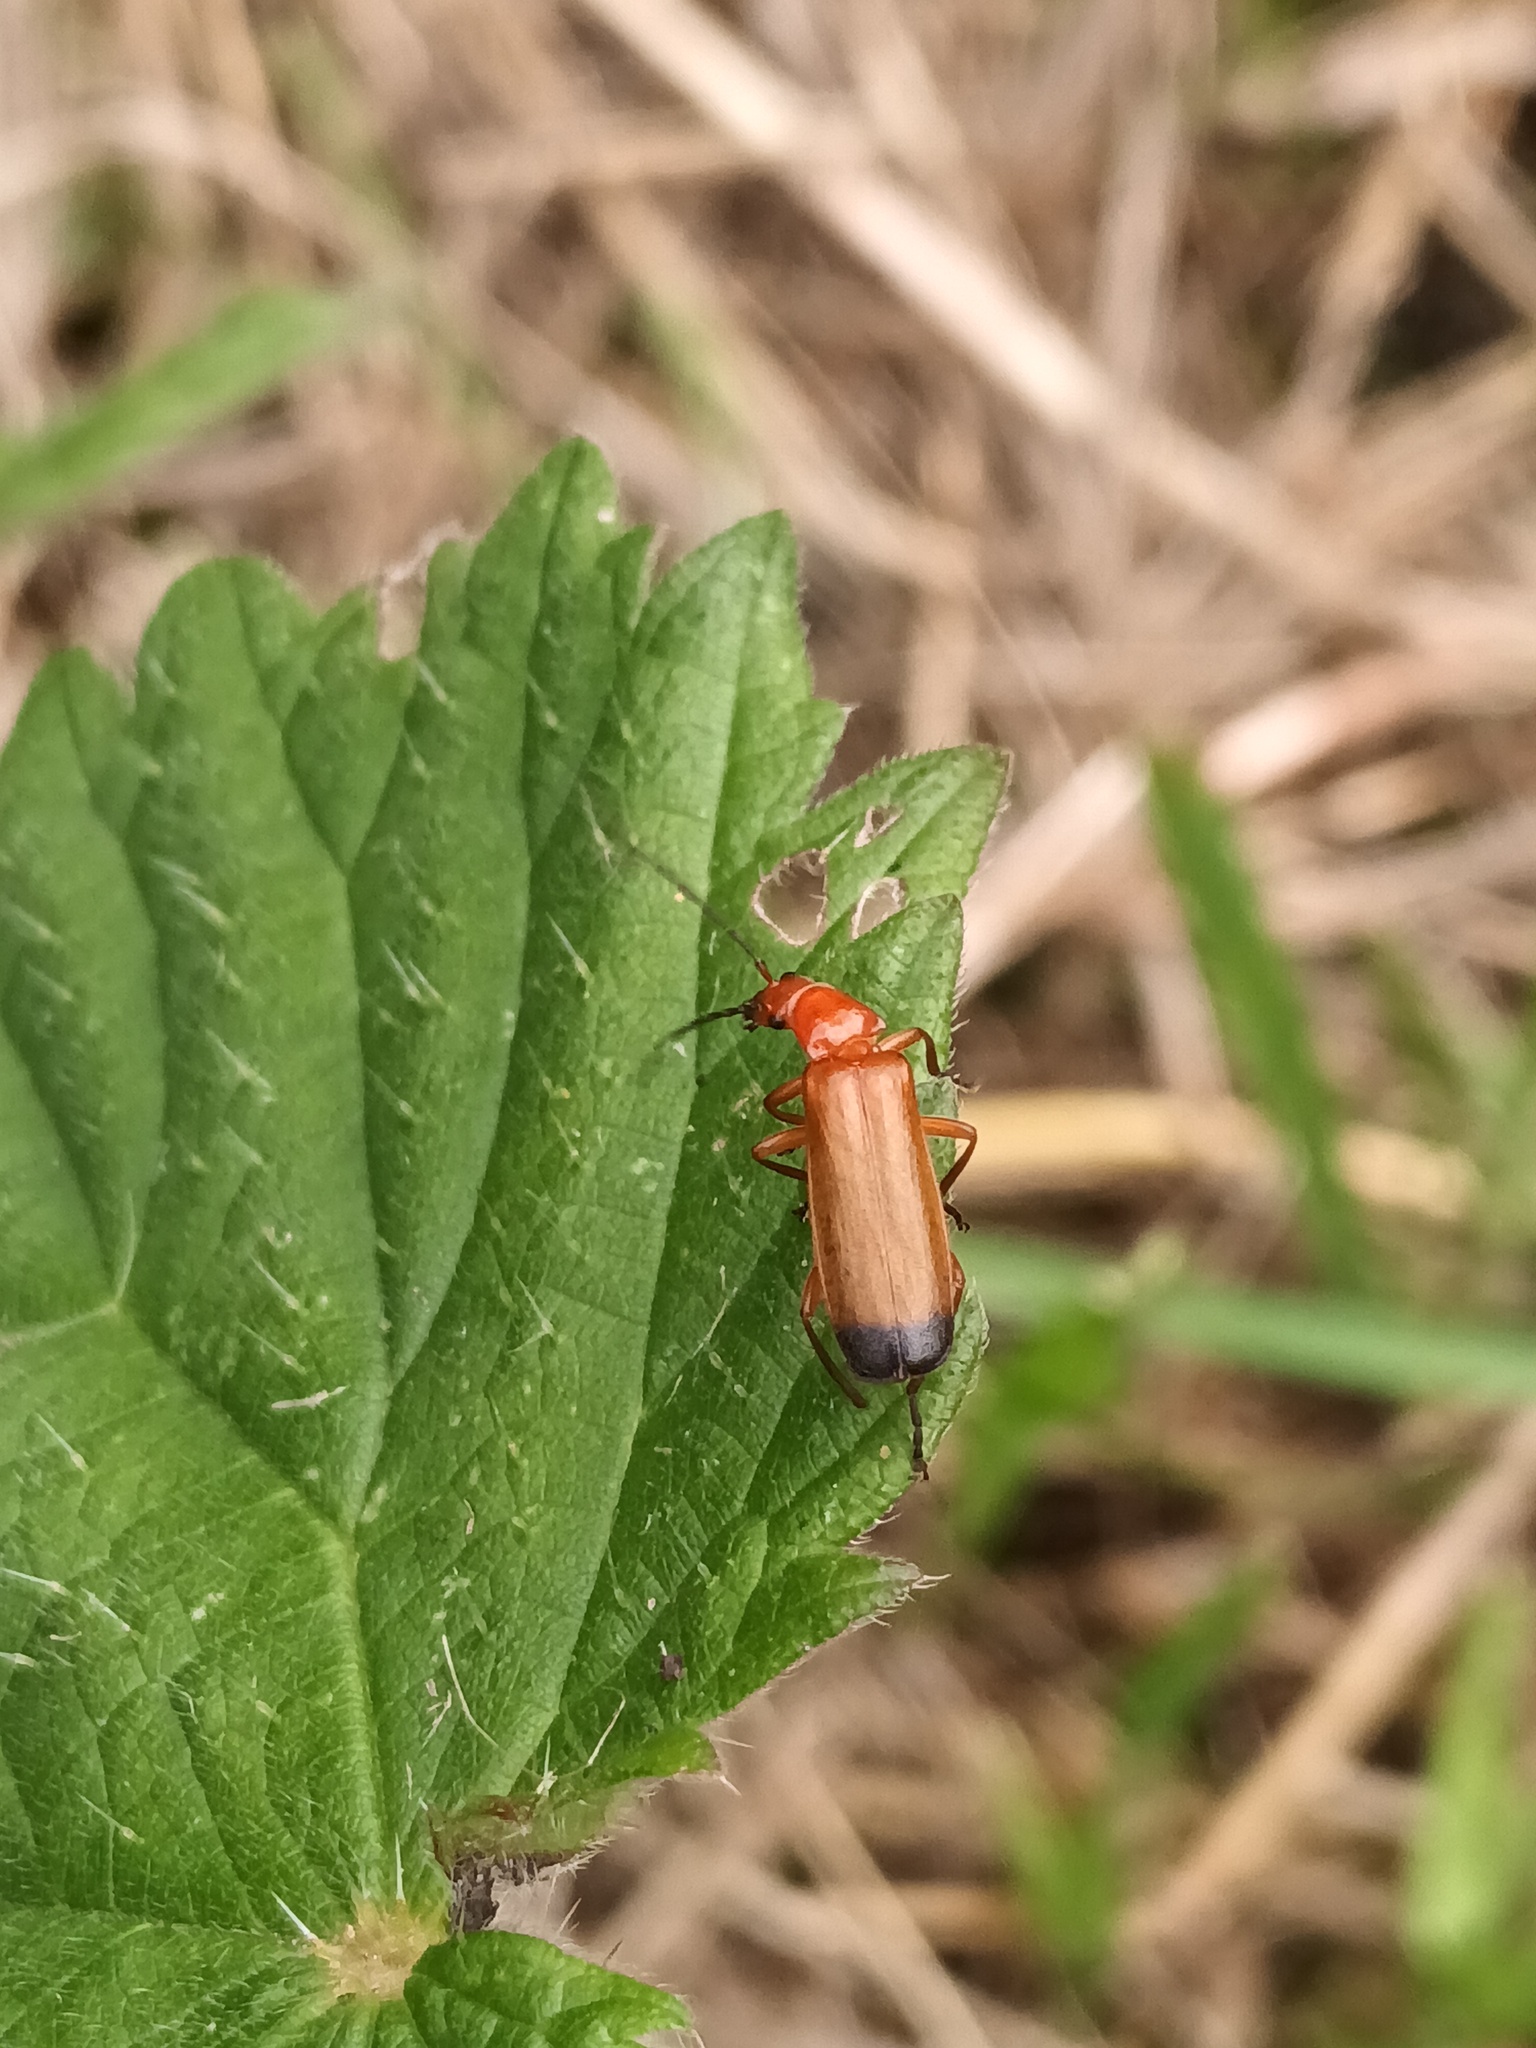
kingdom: Animalia
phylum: Arthropoda
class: Insecta
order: Coleoptera
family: Cantharidae
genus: Rhagonycha
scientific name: Rhagonycha fulva
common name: Common red soldier beetle
